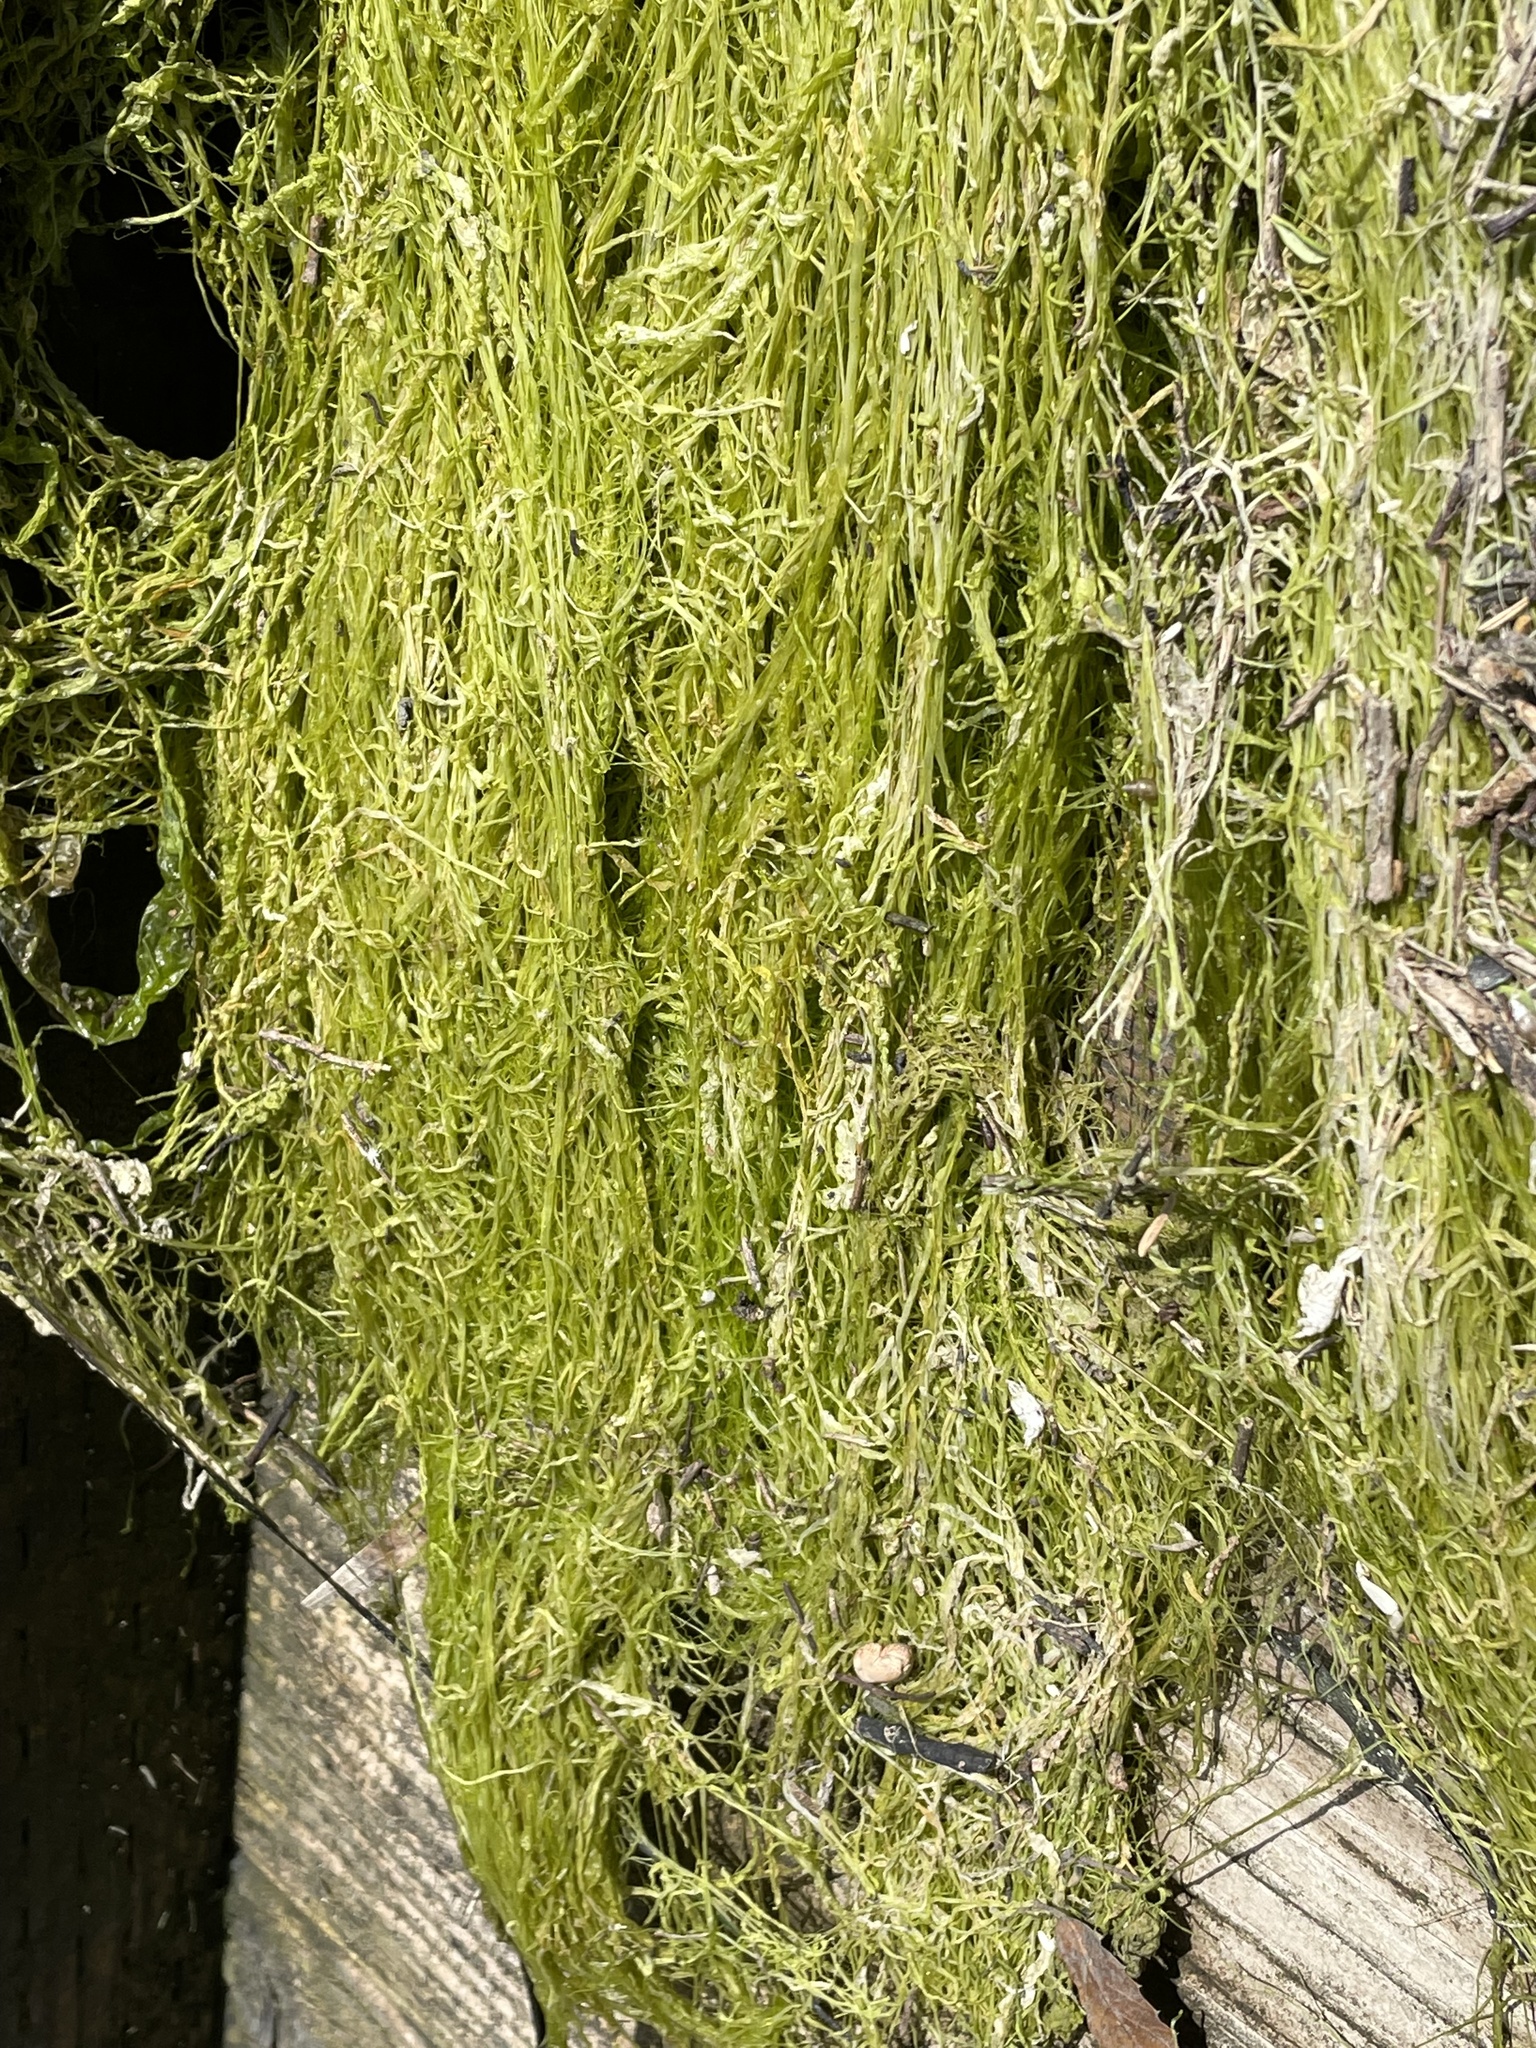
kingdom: Plantae
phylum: Chlorophyta
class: Ulvophyceae
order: Ulvales
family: Ulvaceae
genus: Ulva
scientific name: Ulva intestinalis
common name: Gut weed
